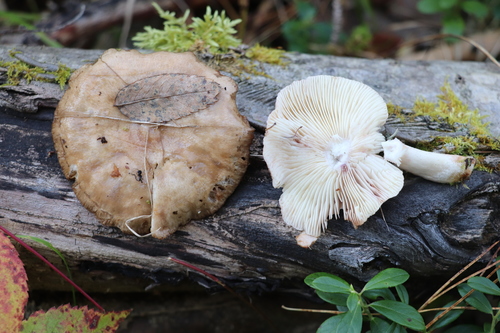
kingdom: Fungi
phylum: Basidiomycota
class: Agaricomycetes
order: Russulales
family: Russulaceae
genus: Lactarius
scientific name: Lactarius uvidus
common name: Shiner milkcap
